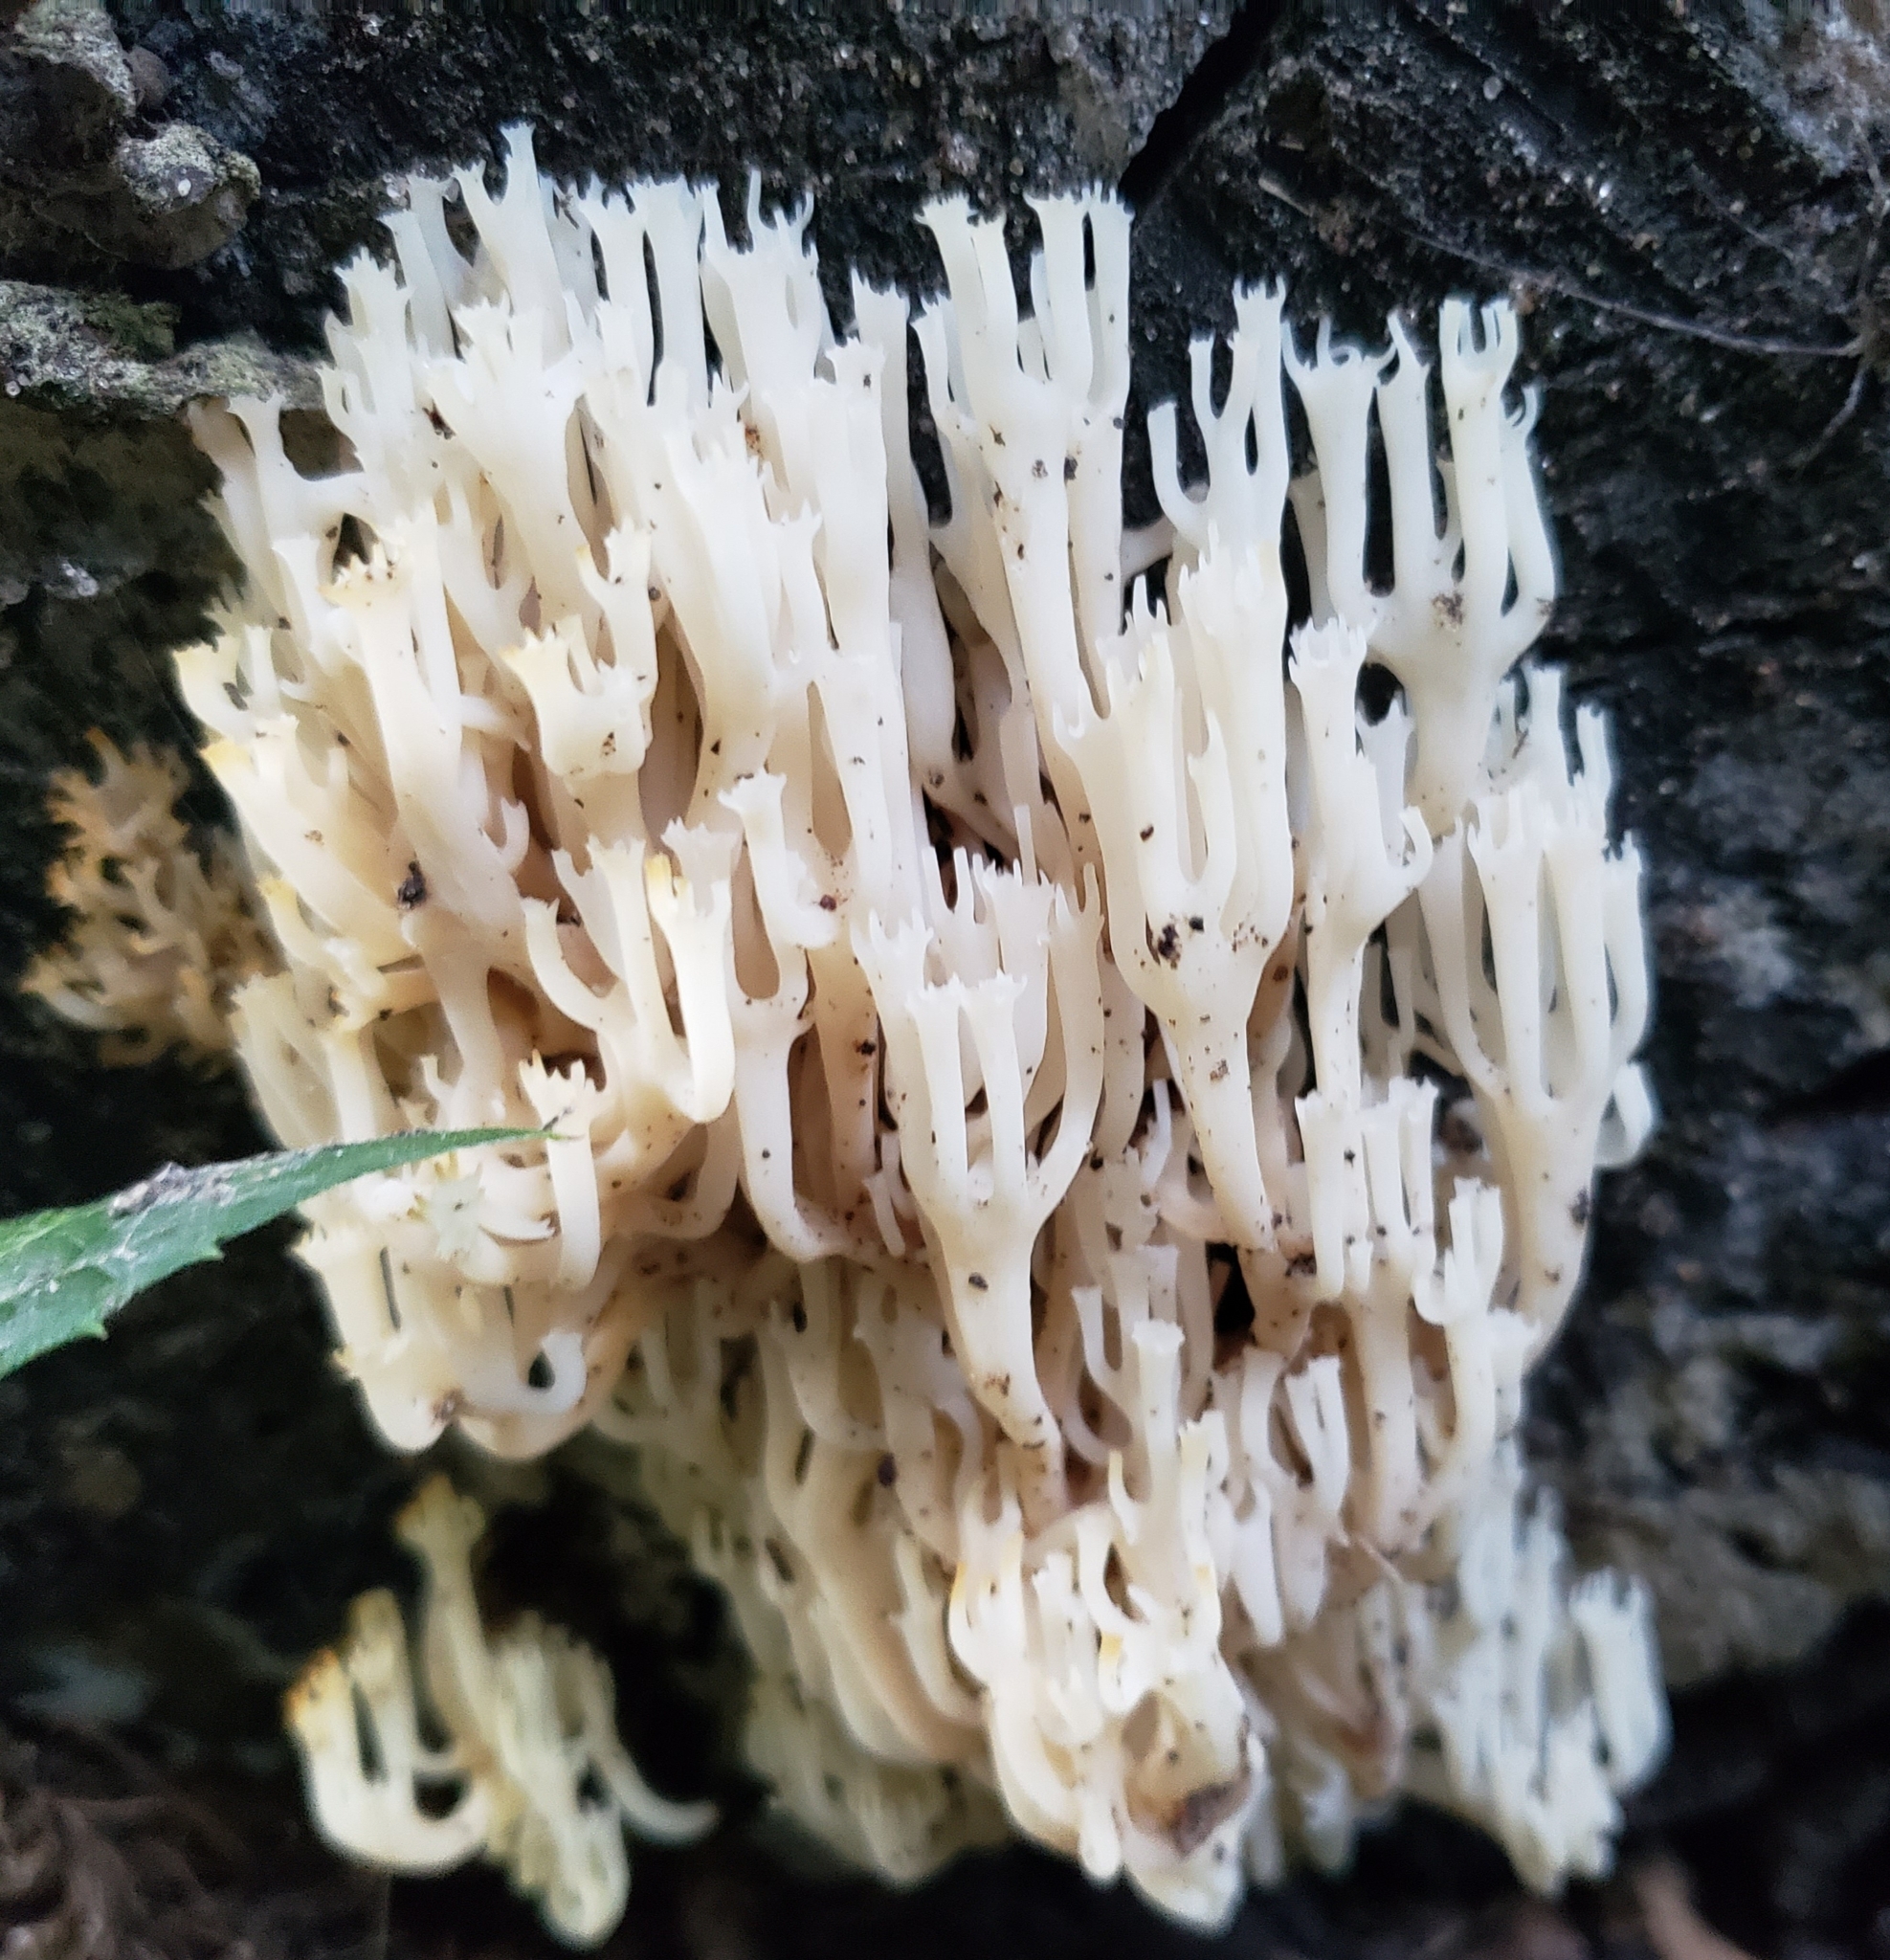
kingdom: Fungi
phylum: Basidiomycota
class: Agaricomycetes
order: Russulales
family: Auriscalpiaceae
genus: Artomyces
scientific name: Artomyces pyxidatus
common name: Crown-tipped coral fungus
